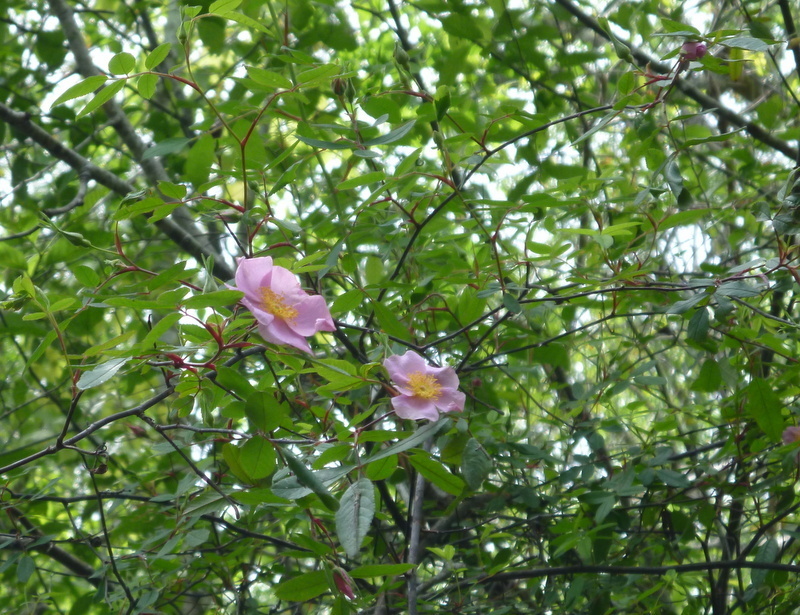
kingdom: Plantae
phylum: Tracheophyta
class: Magnoliopsida
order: Rosales
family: Rosaceae
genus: Rosa
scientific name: Rosa palustris
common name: Swamp rose
